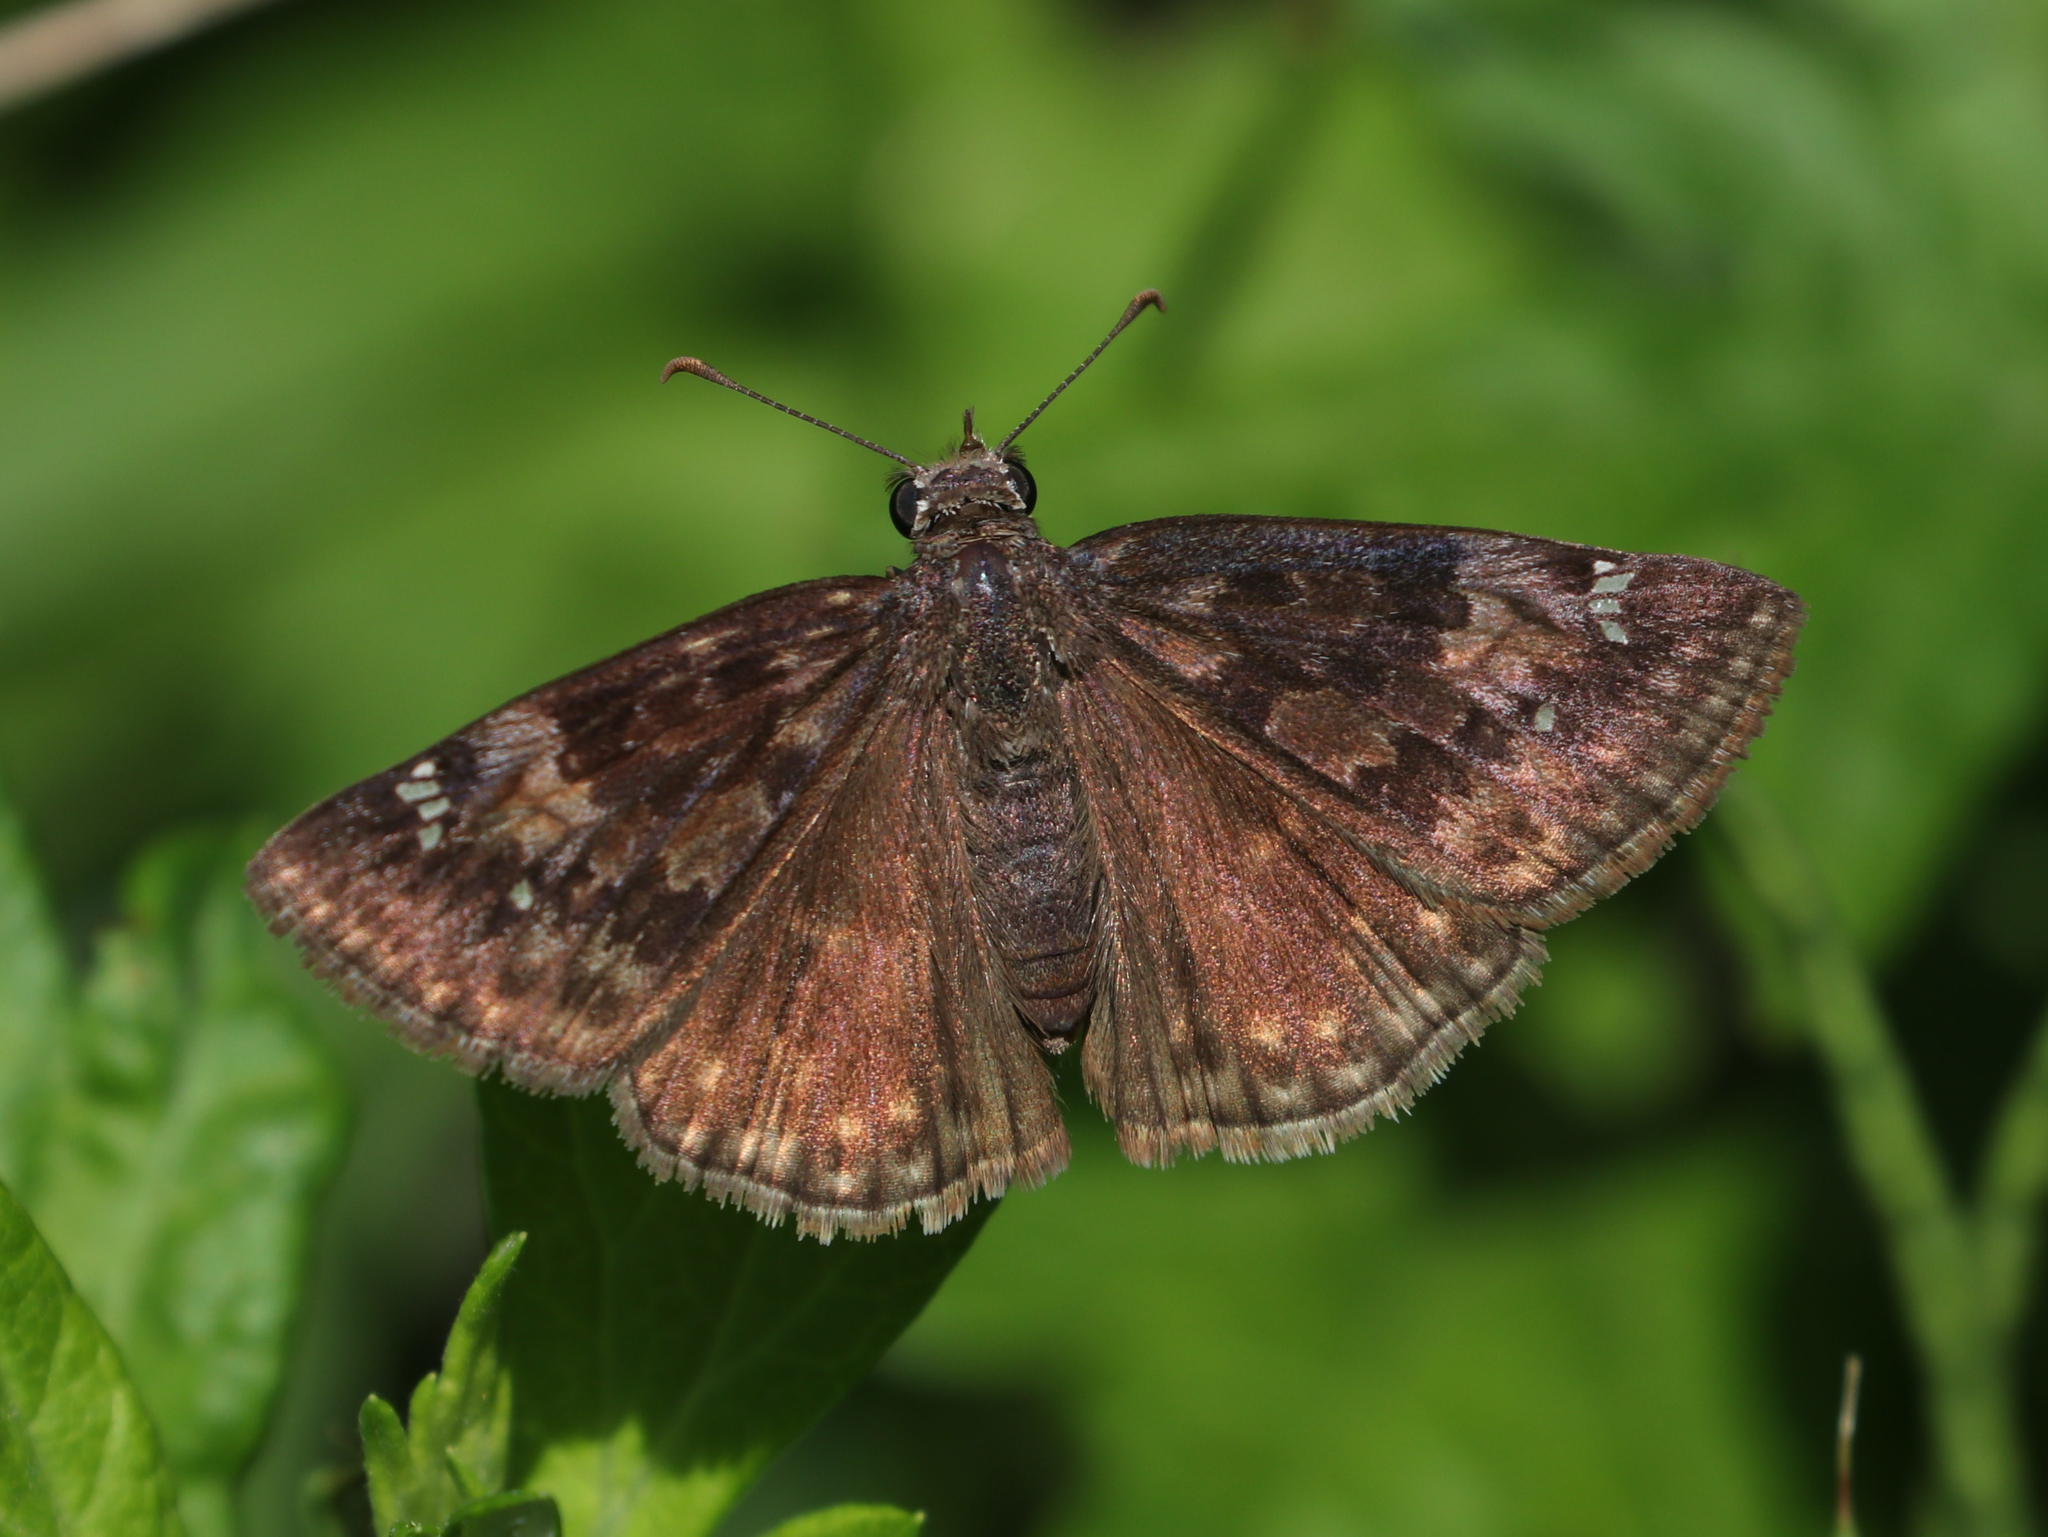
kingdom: Animalia
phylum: Arthropoda
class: Insecta
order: Lepidoptera
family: Hesperiidae
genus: Erynnis
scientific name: Erynnis baptisiae
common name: Wild indigo duskywing
